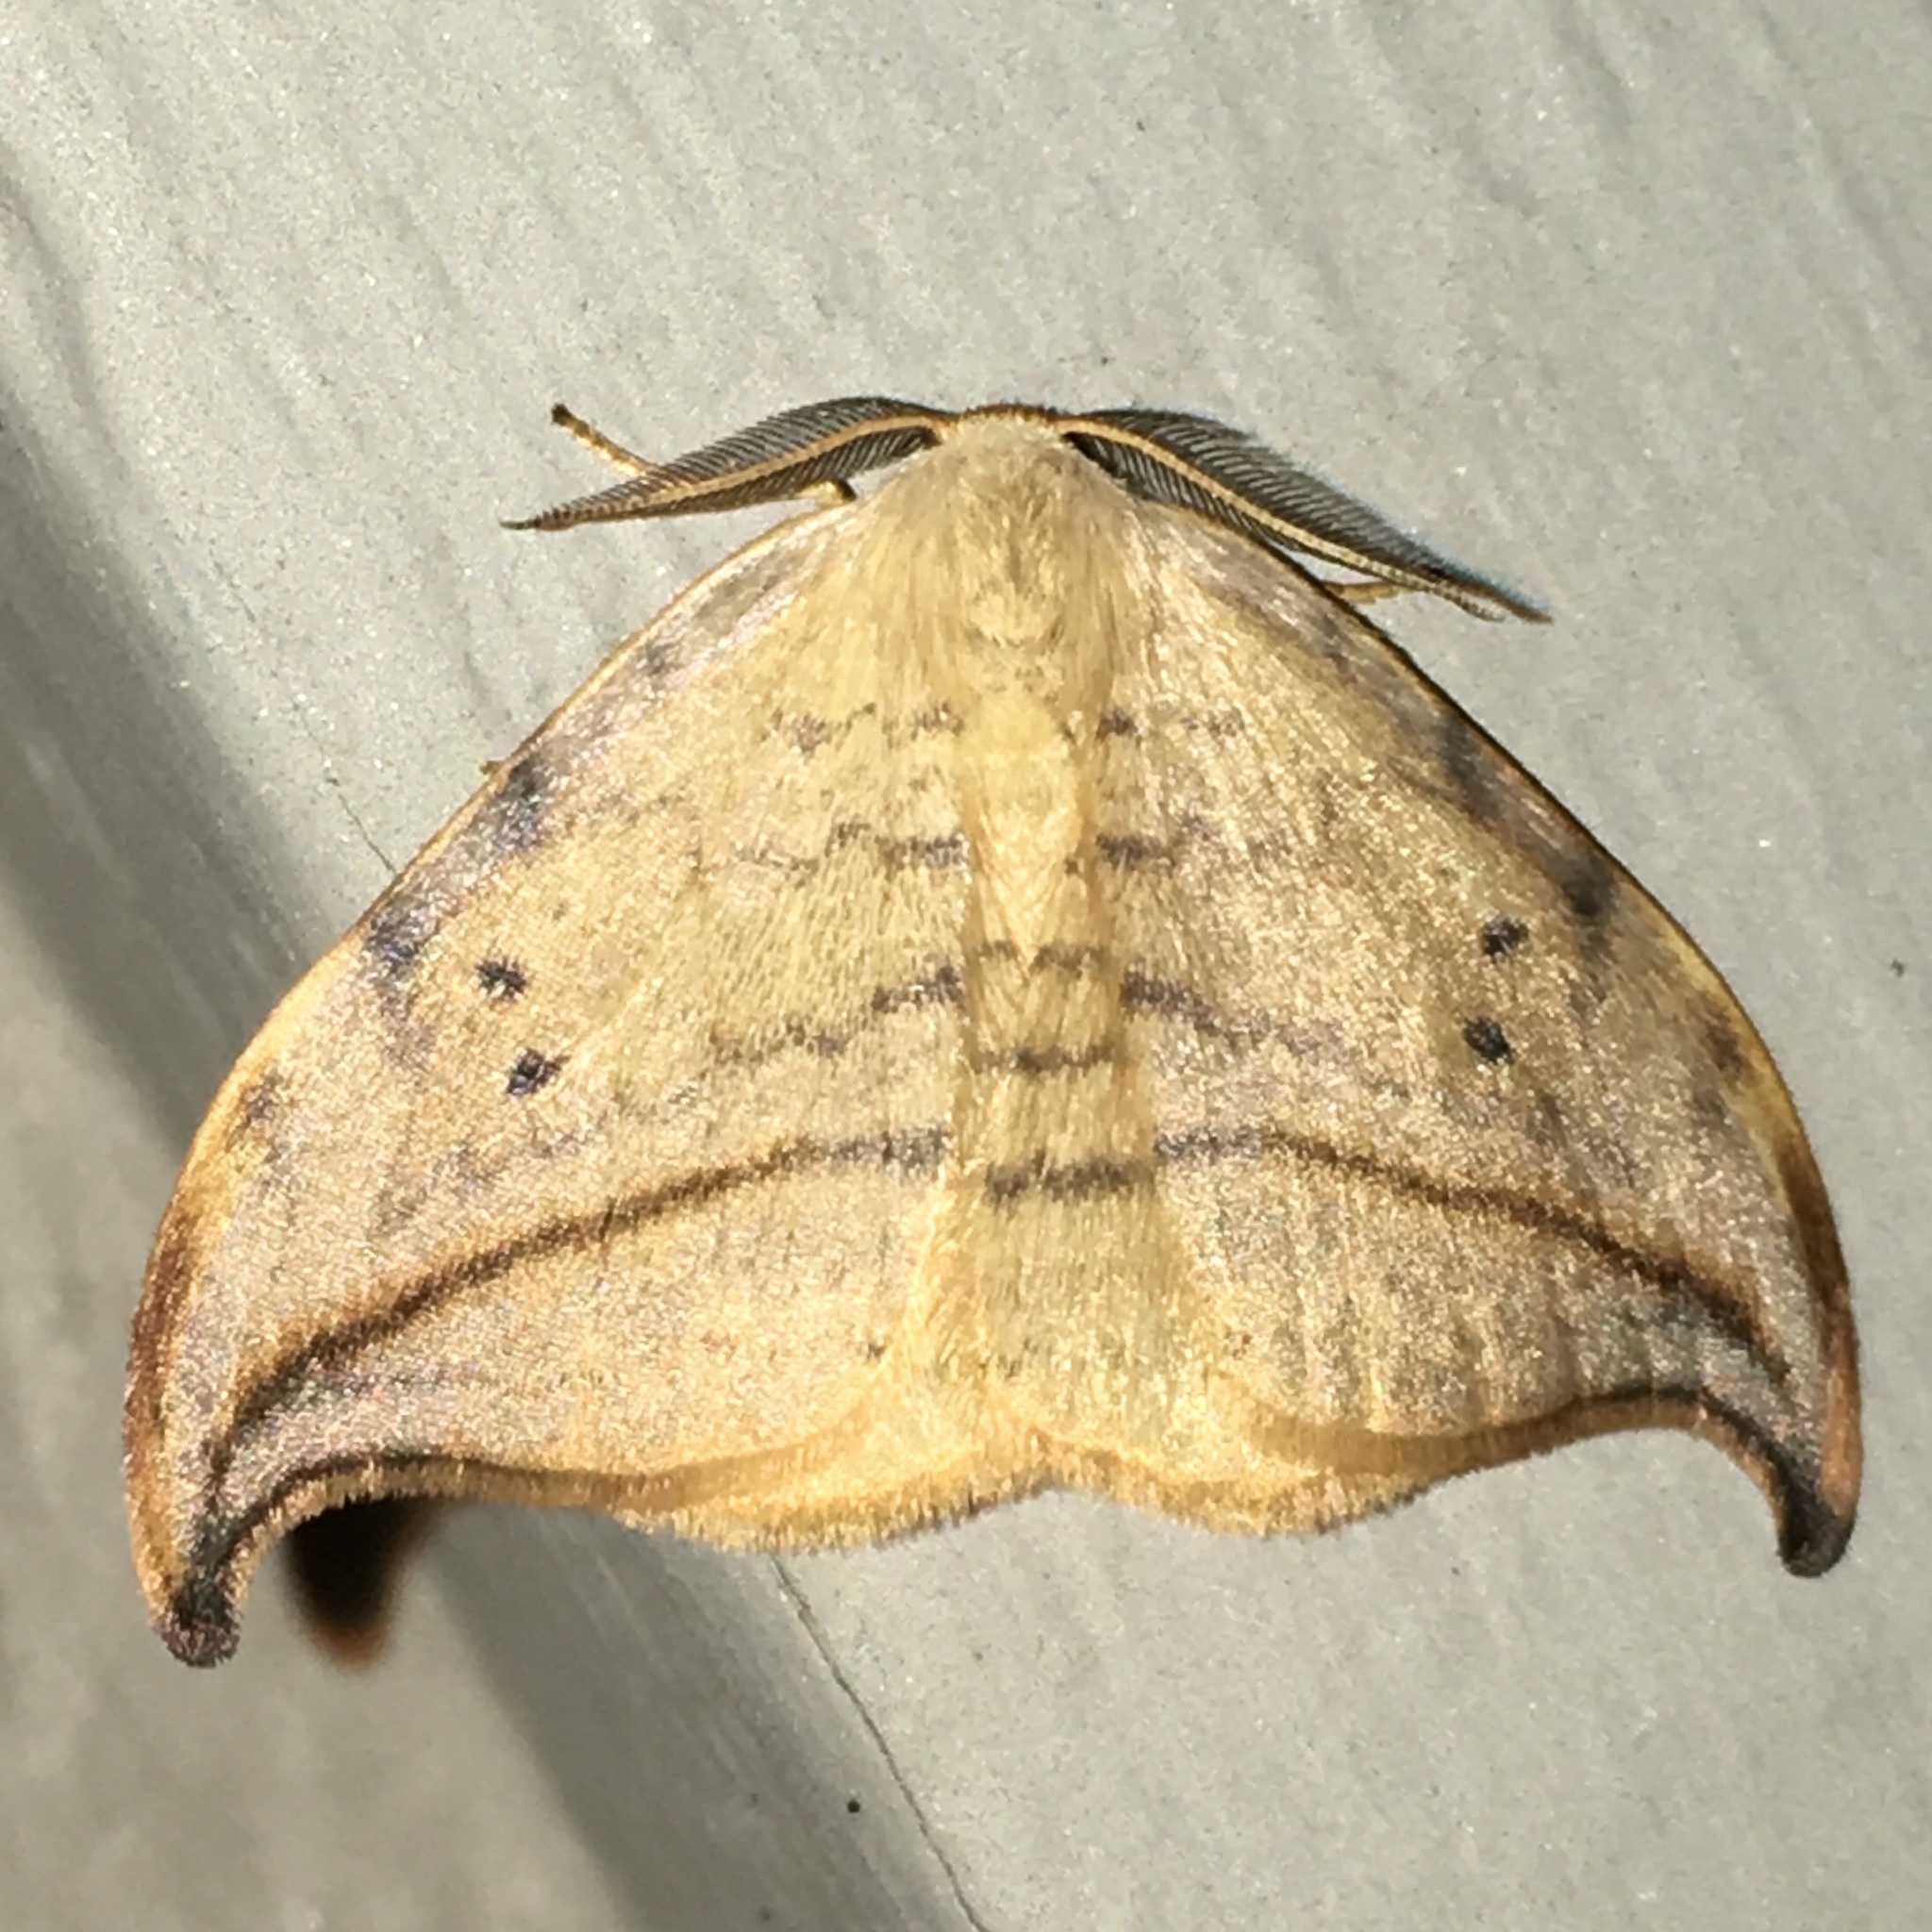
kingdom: Animalia
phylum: Arthropoda
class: Insecta
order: Lepidoptera
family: Drepanidae
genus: Drepana
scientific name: Drepana arcuata
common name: Arched hooktip moth
